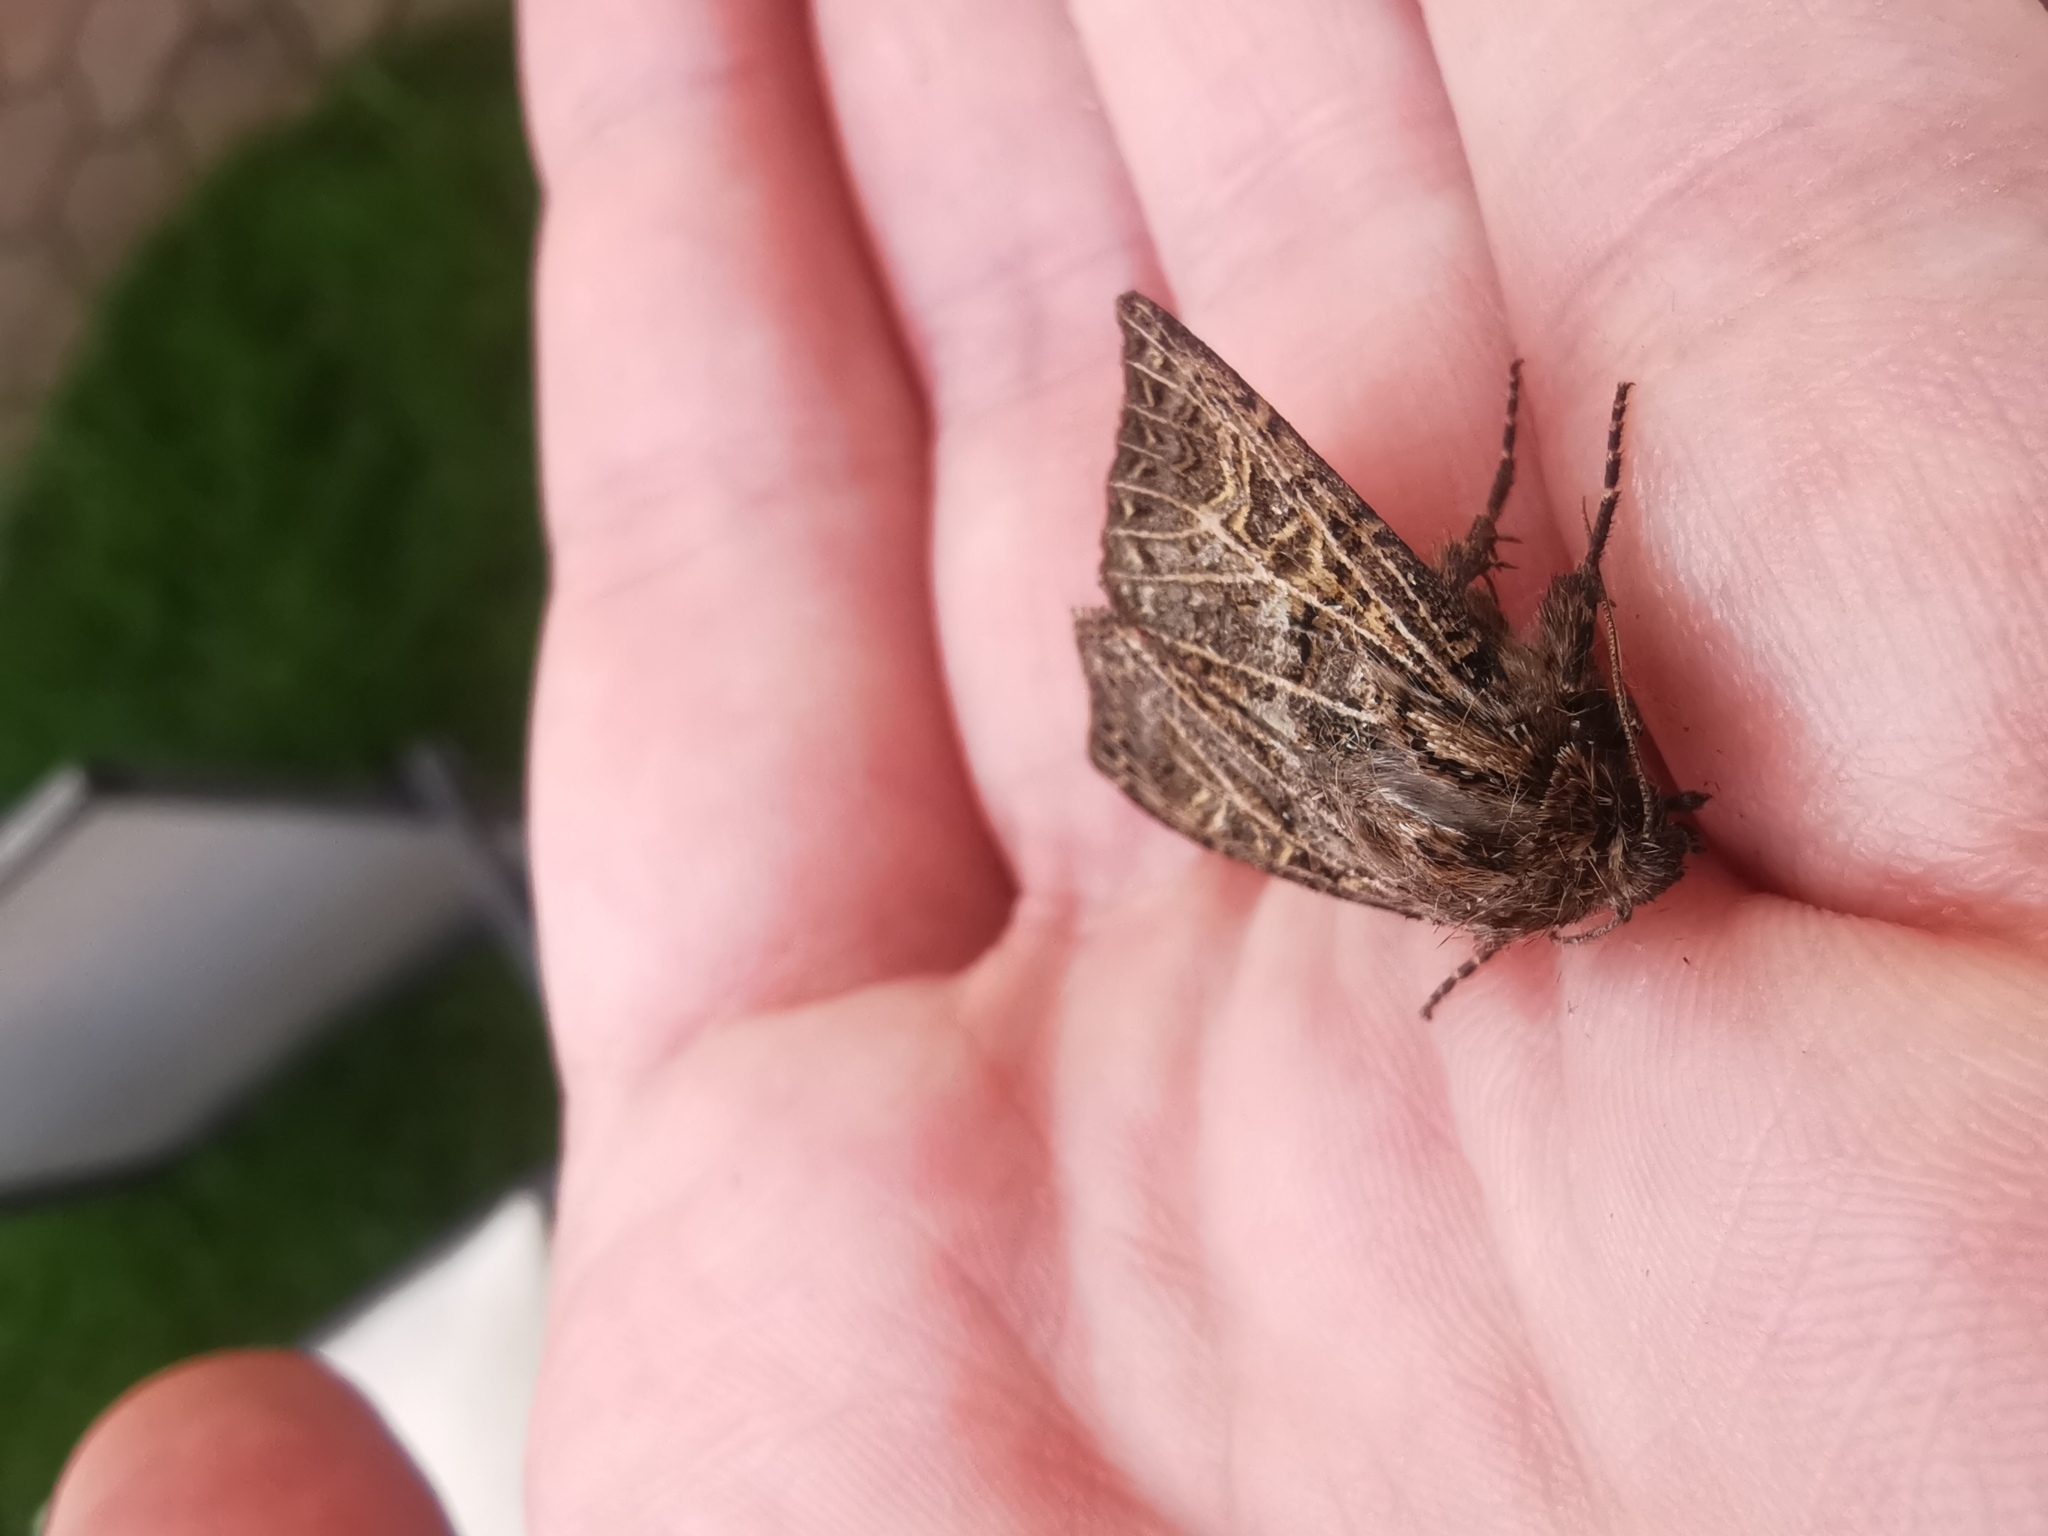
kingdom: Animalia
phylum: Arthropoda
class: Insecta
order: Lepidoptera
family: Noctuidae
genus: Tholera
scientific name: Tholera decimalis
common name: Feathered gothic
